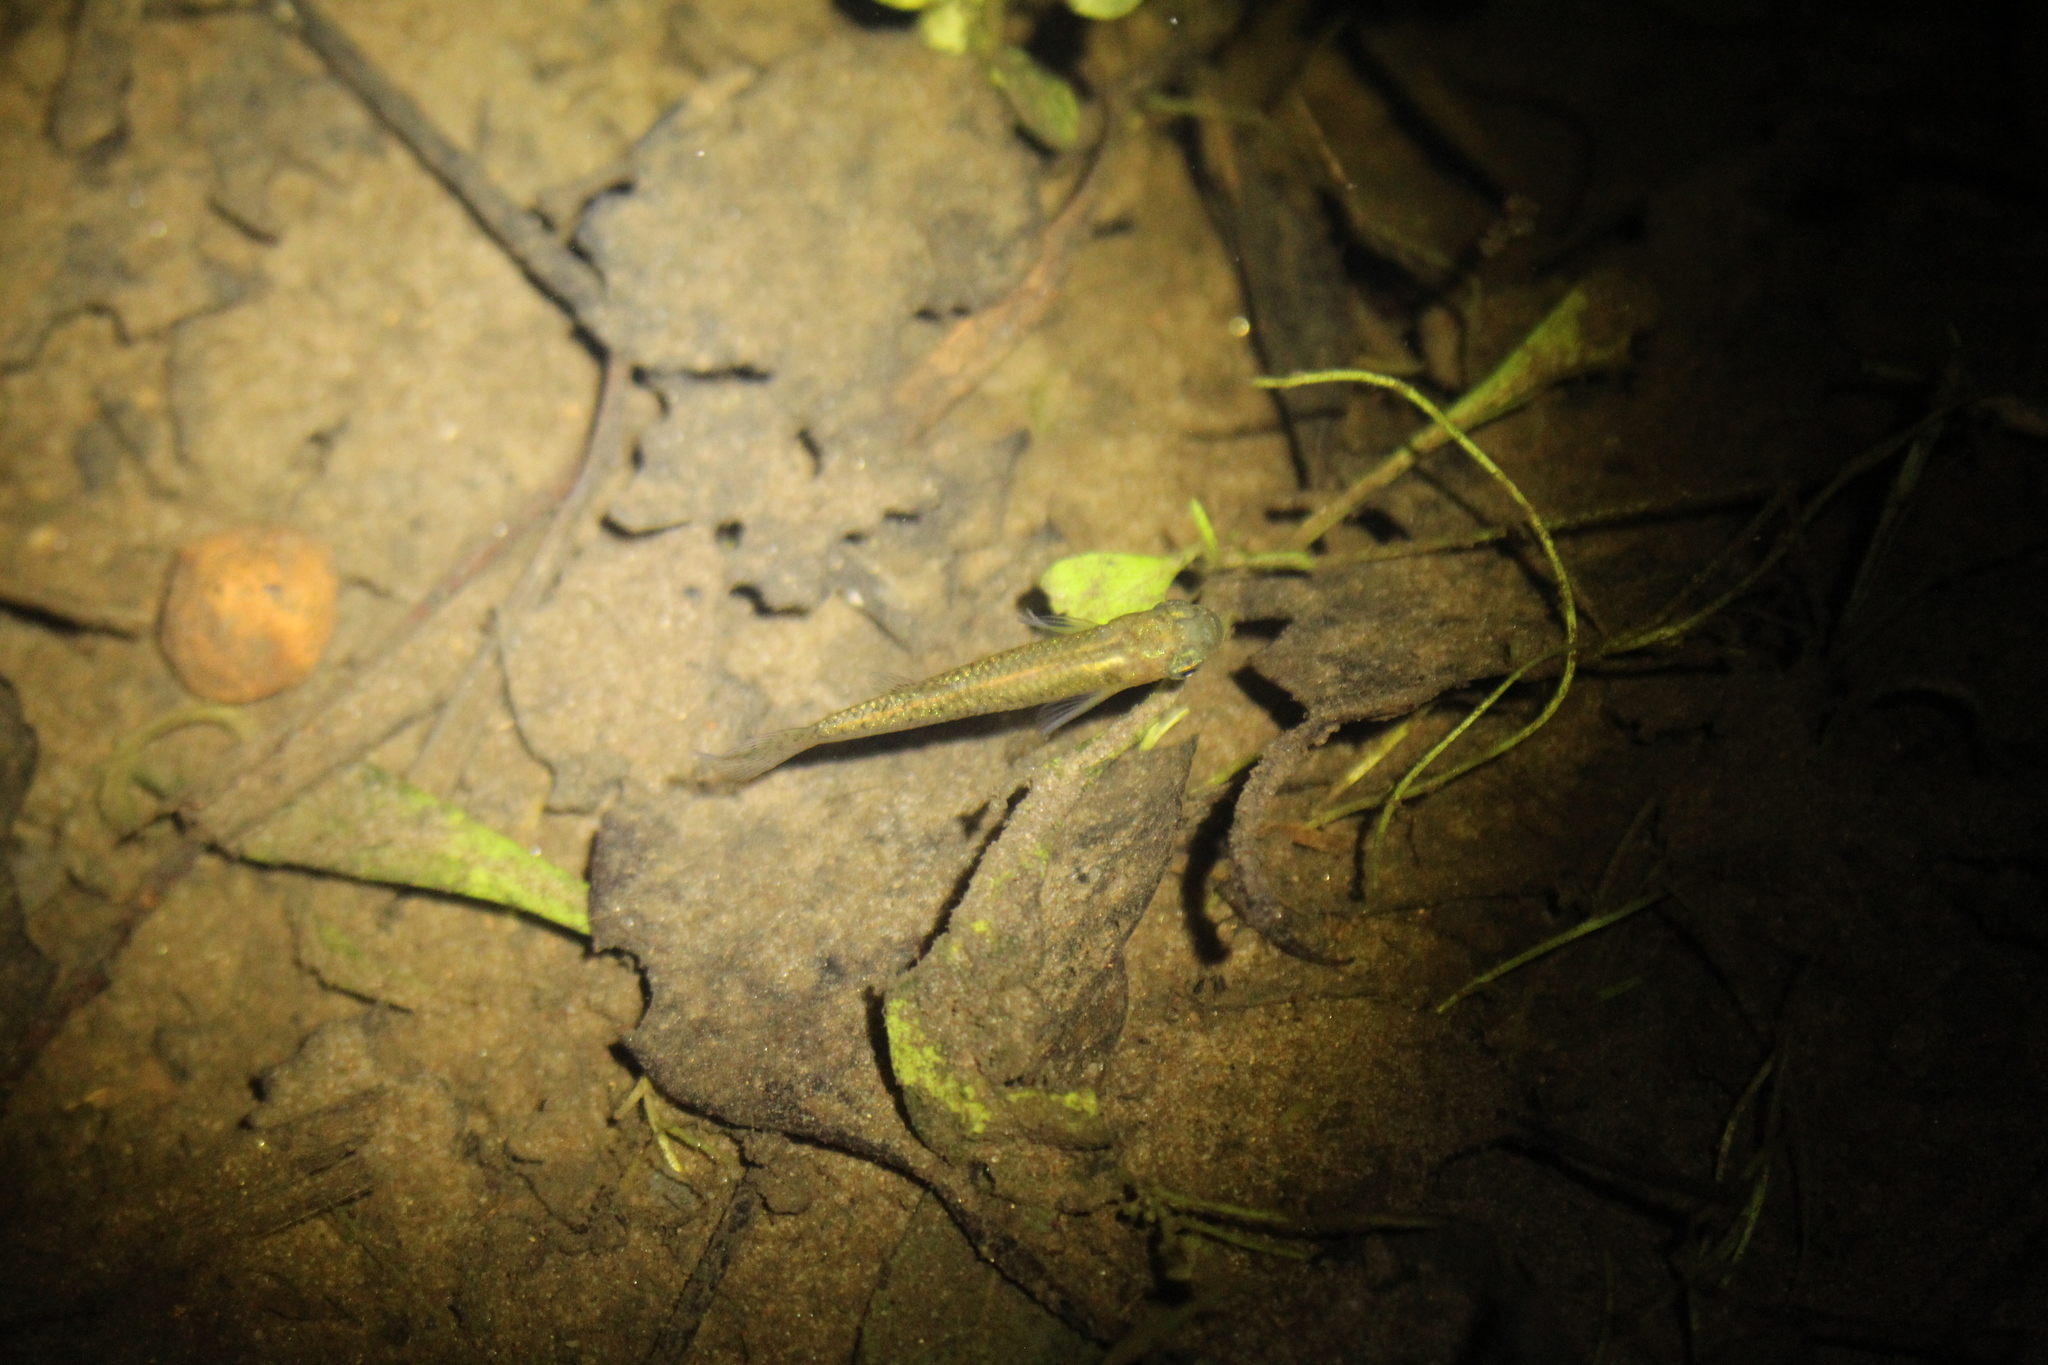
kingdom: Animalia
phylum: Chordata
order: Cyprinodontiformes
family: Poeciliidae
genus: Gambusia
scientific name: Gambusia holbrooki
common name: Eastern mosquitofish
